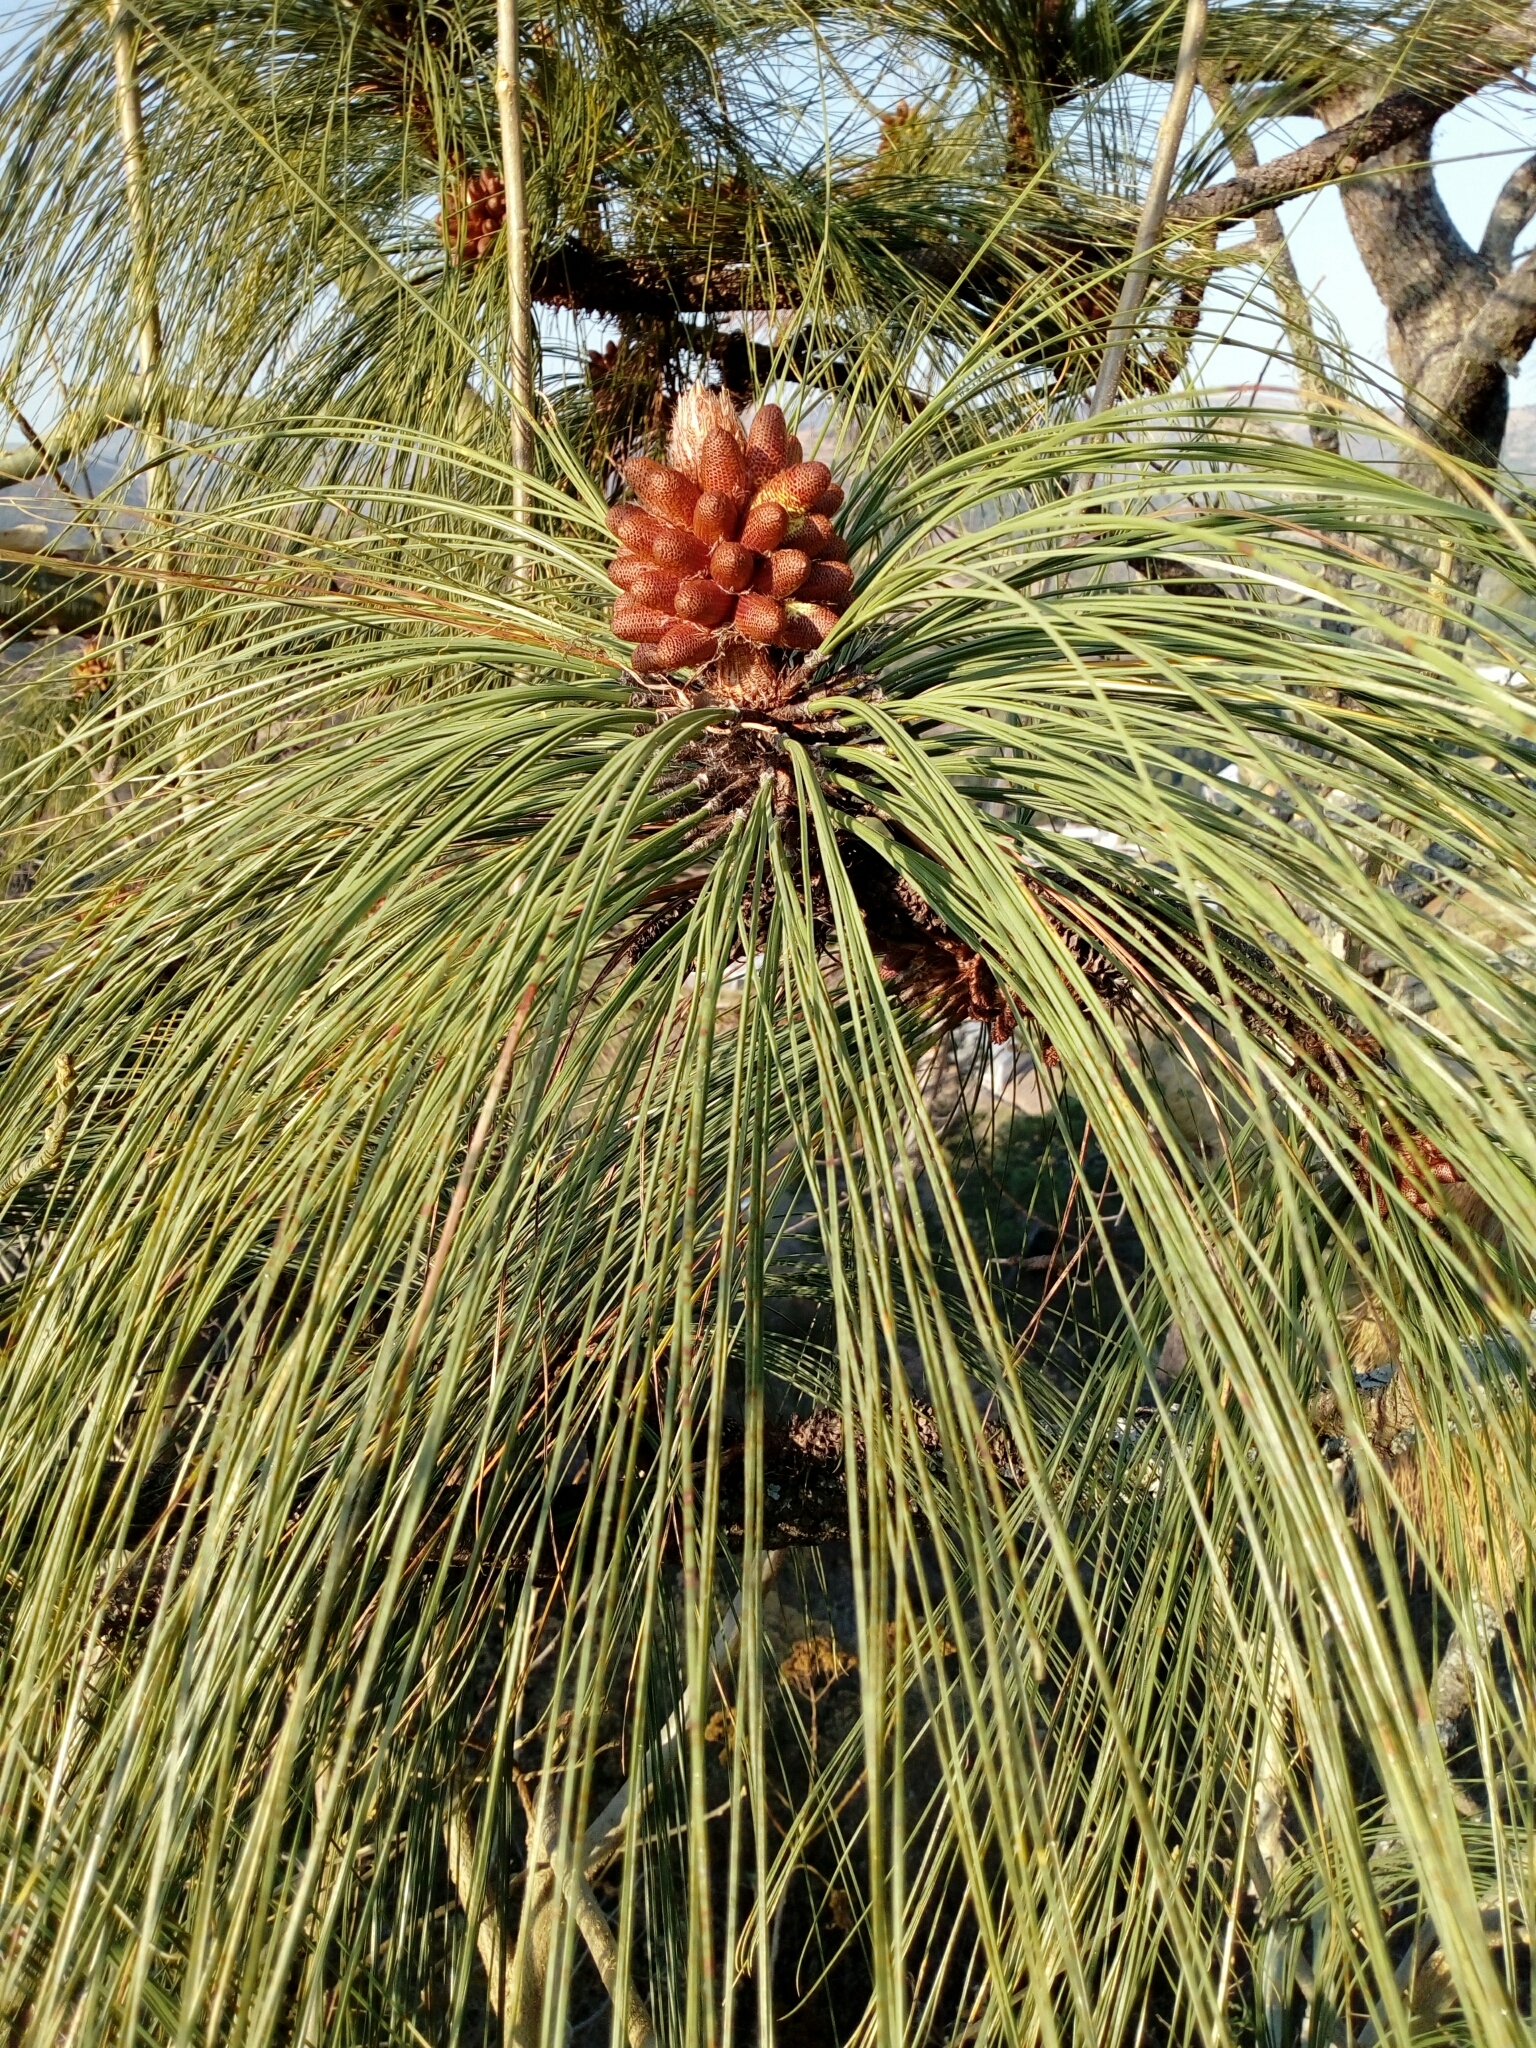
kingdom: Plantae
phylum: Tracheophyta
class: Pinopsida
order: Pinales
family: Pinaceae
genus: Pinus
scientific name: Pinus devoniana
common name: Michoacan pine
